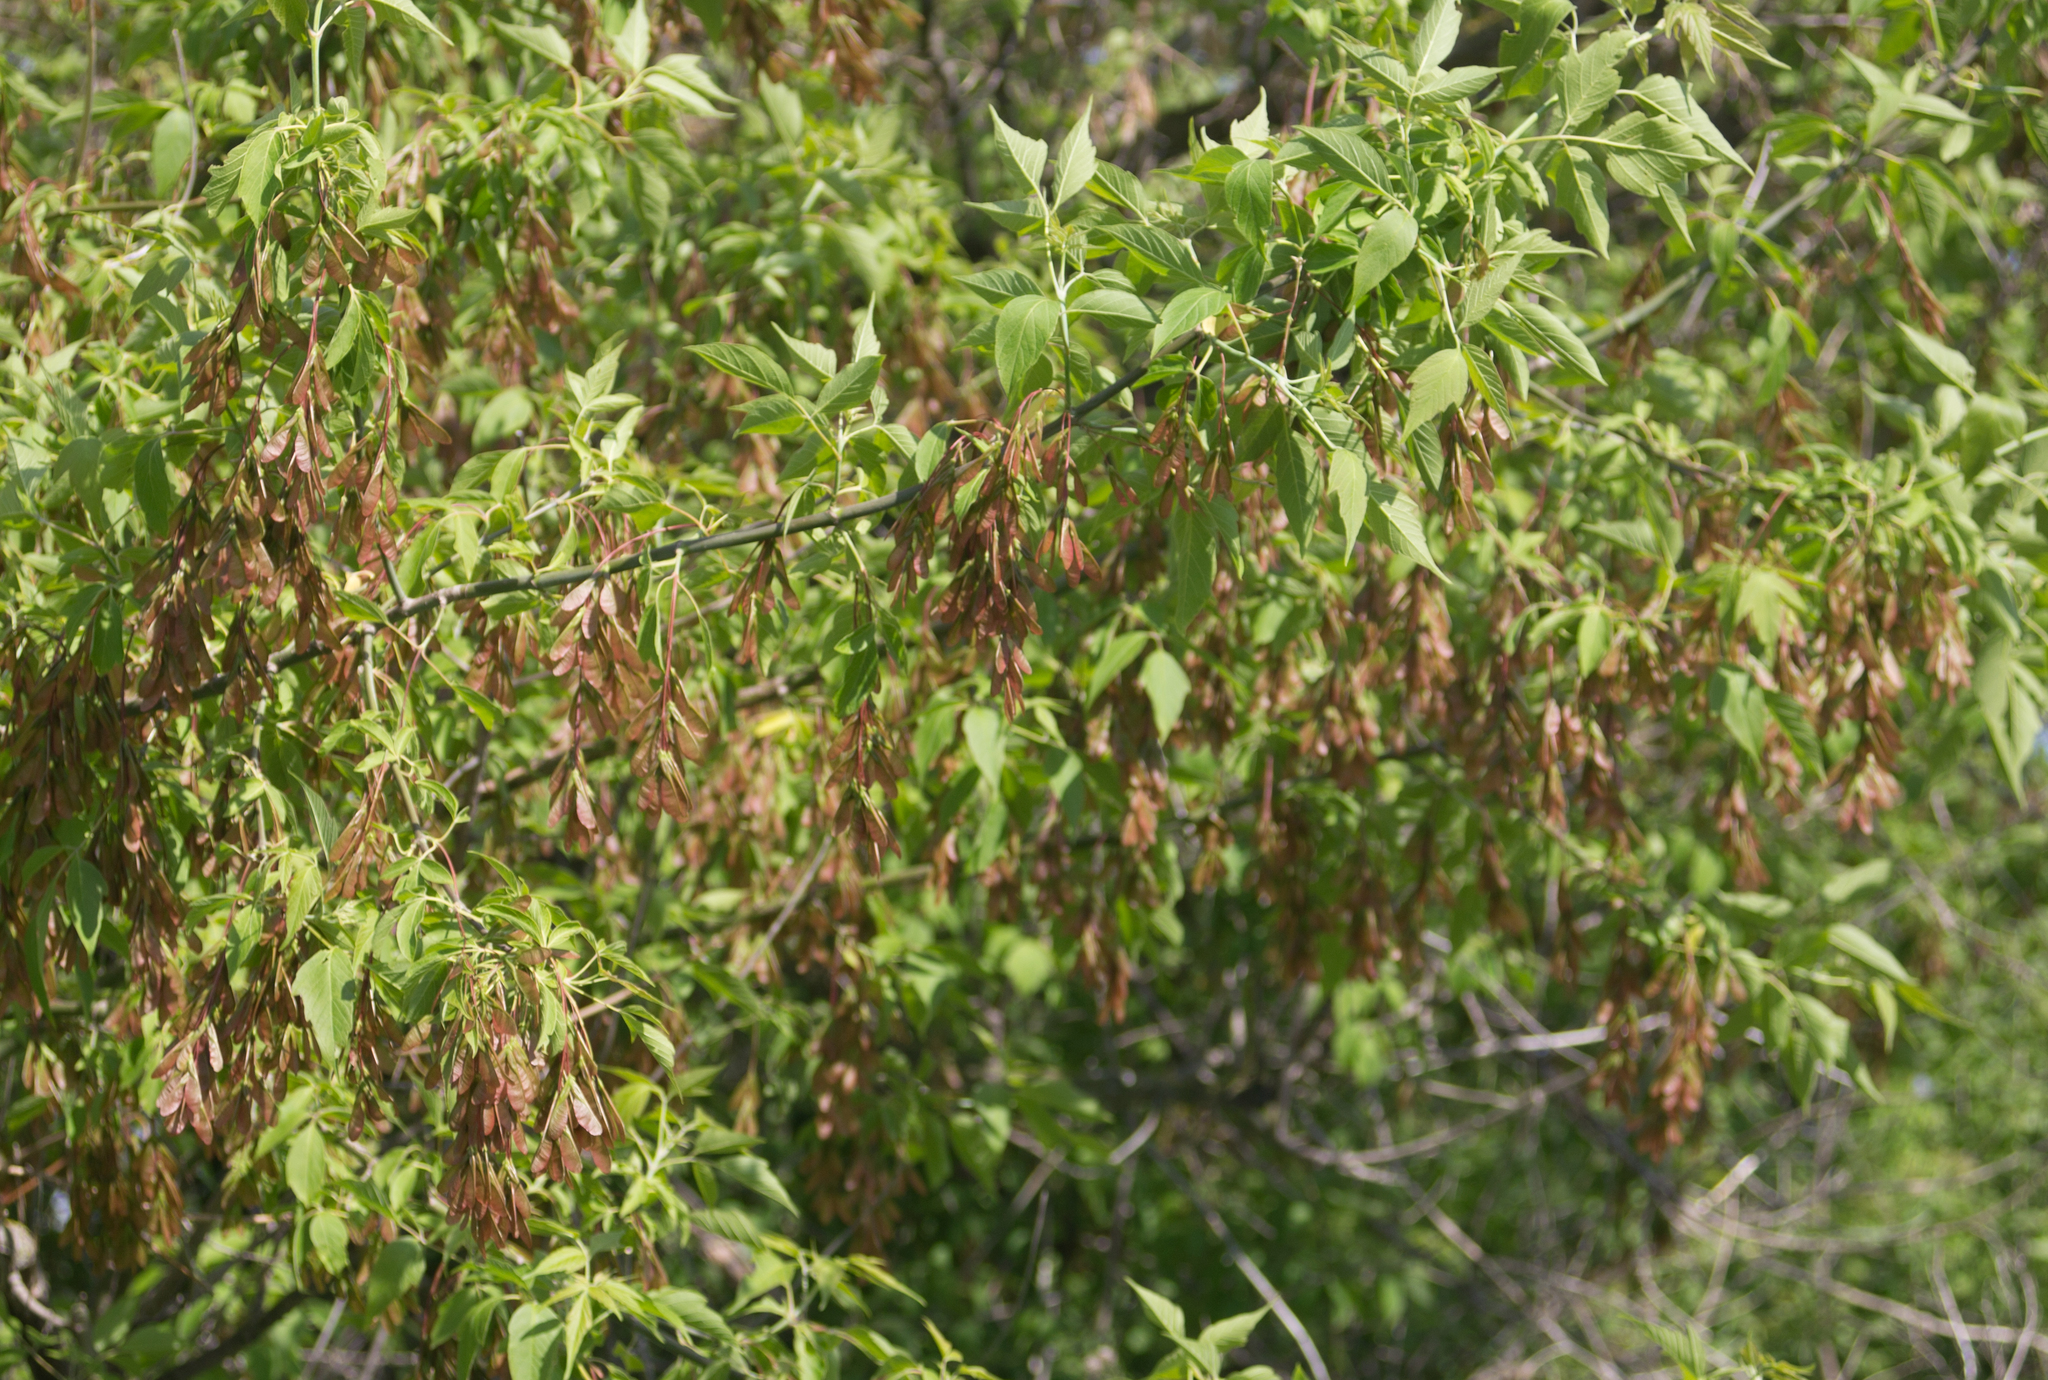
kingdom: Plantae
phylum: Tracheophyta
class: Magnoliopsida
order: Sapindales
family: Sapindaceae
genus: Acer
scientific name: Acer negundo
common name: Ashleaf maple
